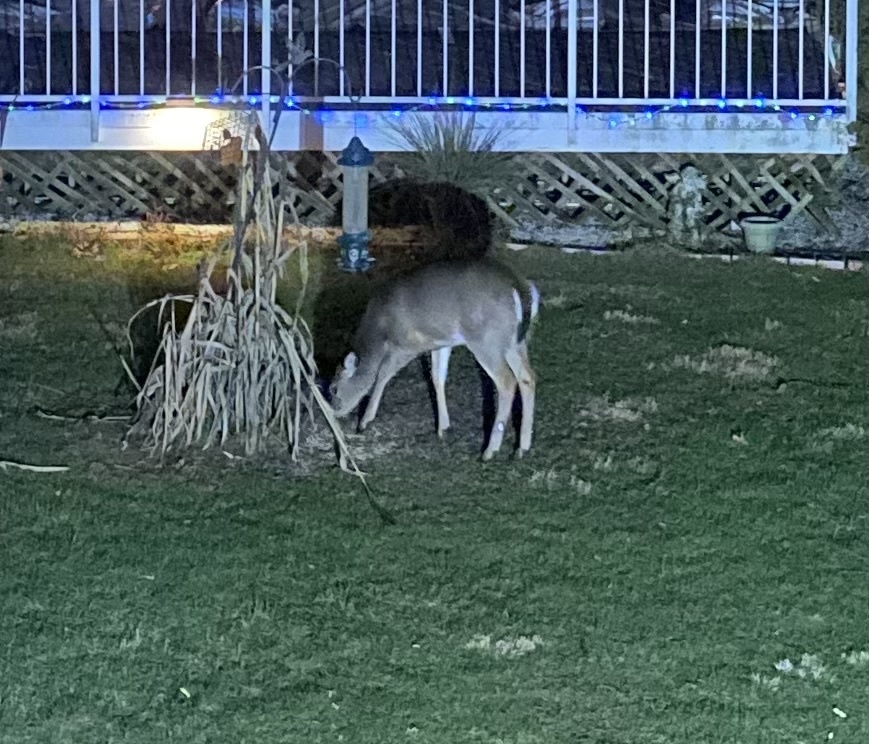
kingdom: Animalia
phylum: Chordata
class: Mammalia
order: Artiodactyla
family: Cervidae
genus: Odocoileus
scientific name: Odocoileus virginianus
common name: White-tailed deer
